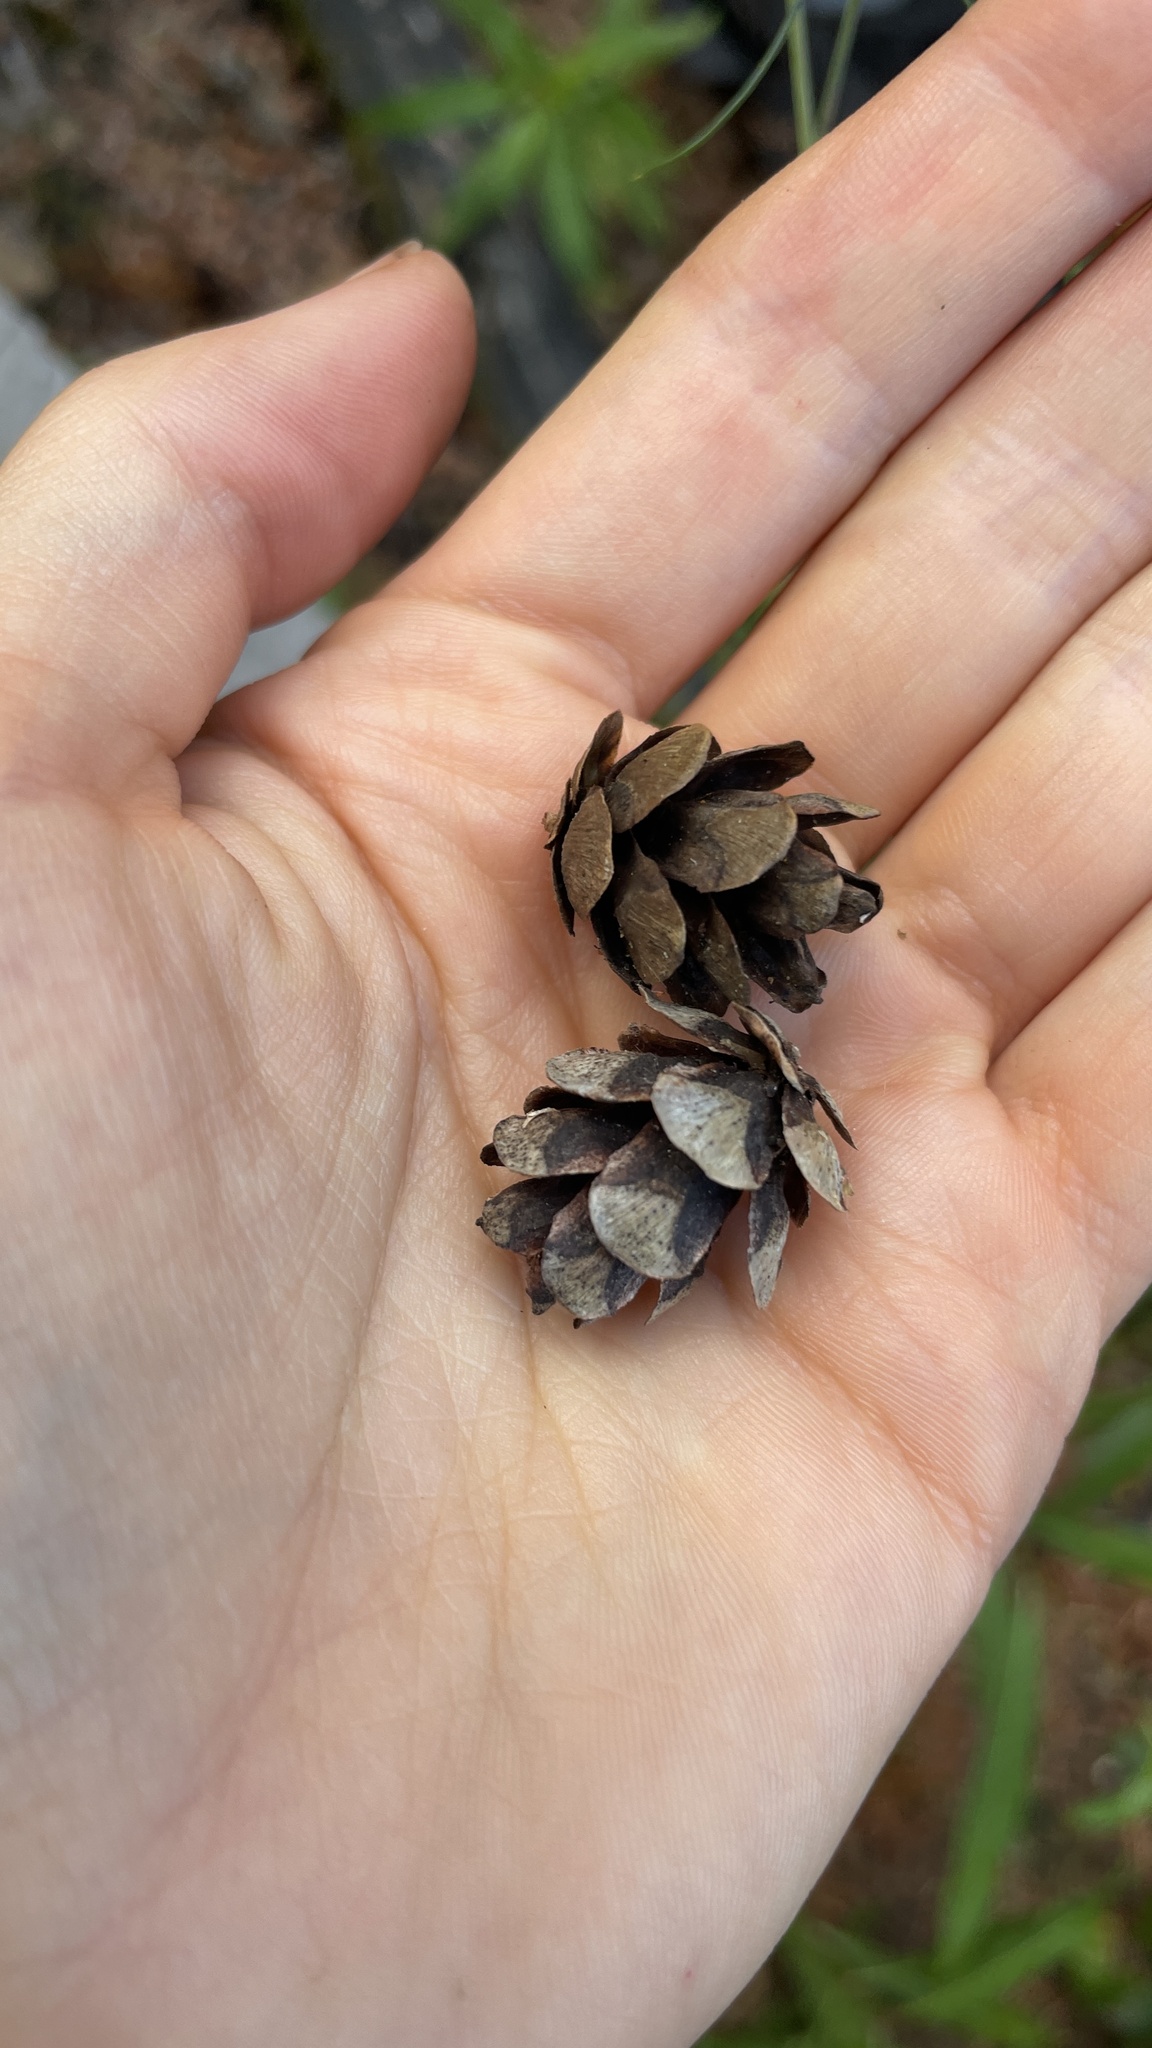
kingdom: Plantae
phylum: Tracheophyta
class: Pinopsida
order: Pinales
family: Pinaceae
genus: Tsuga
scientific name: Tsuga heterophylla
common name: Western hemlock
